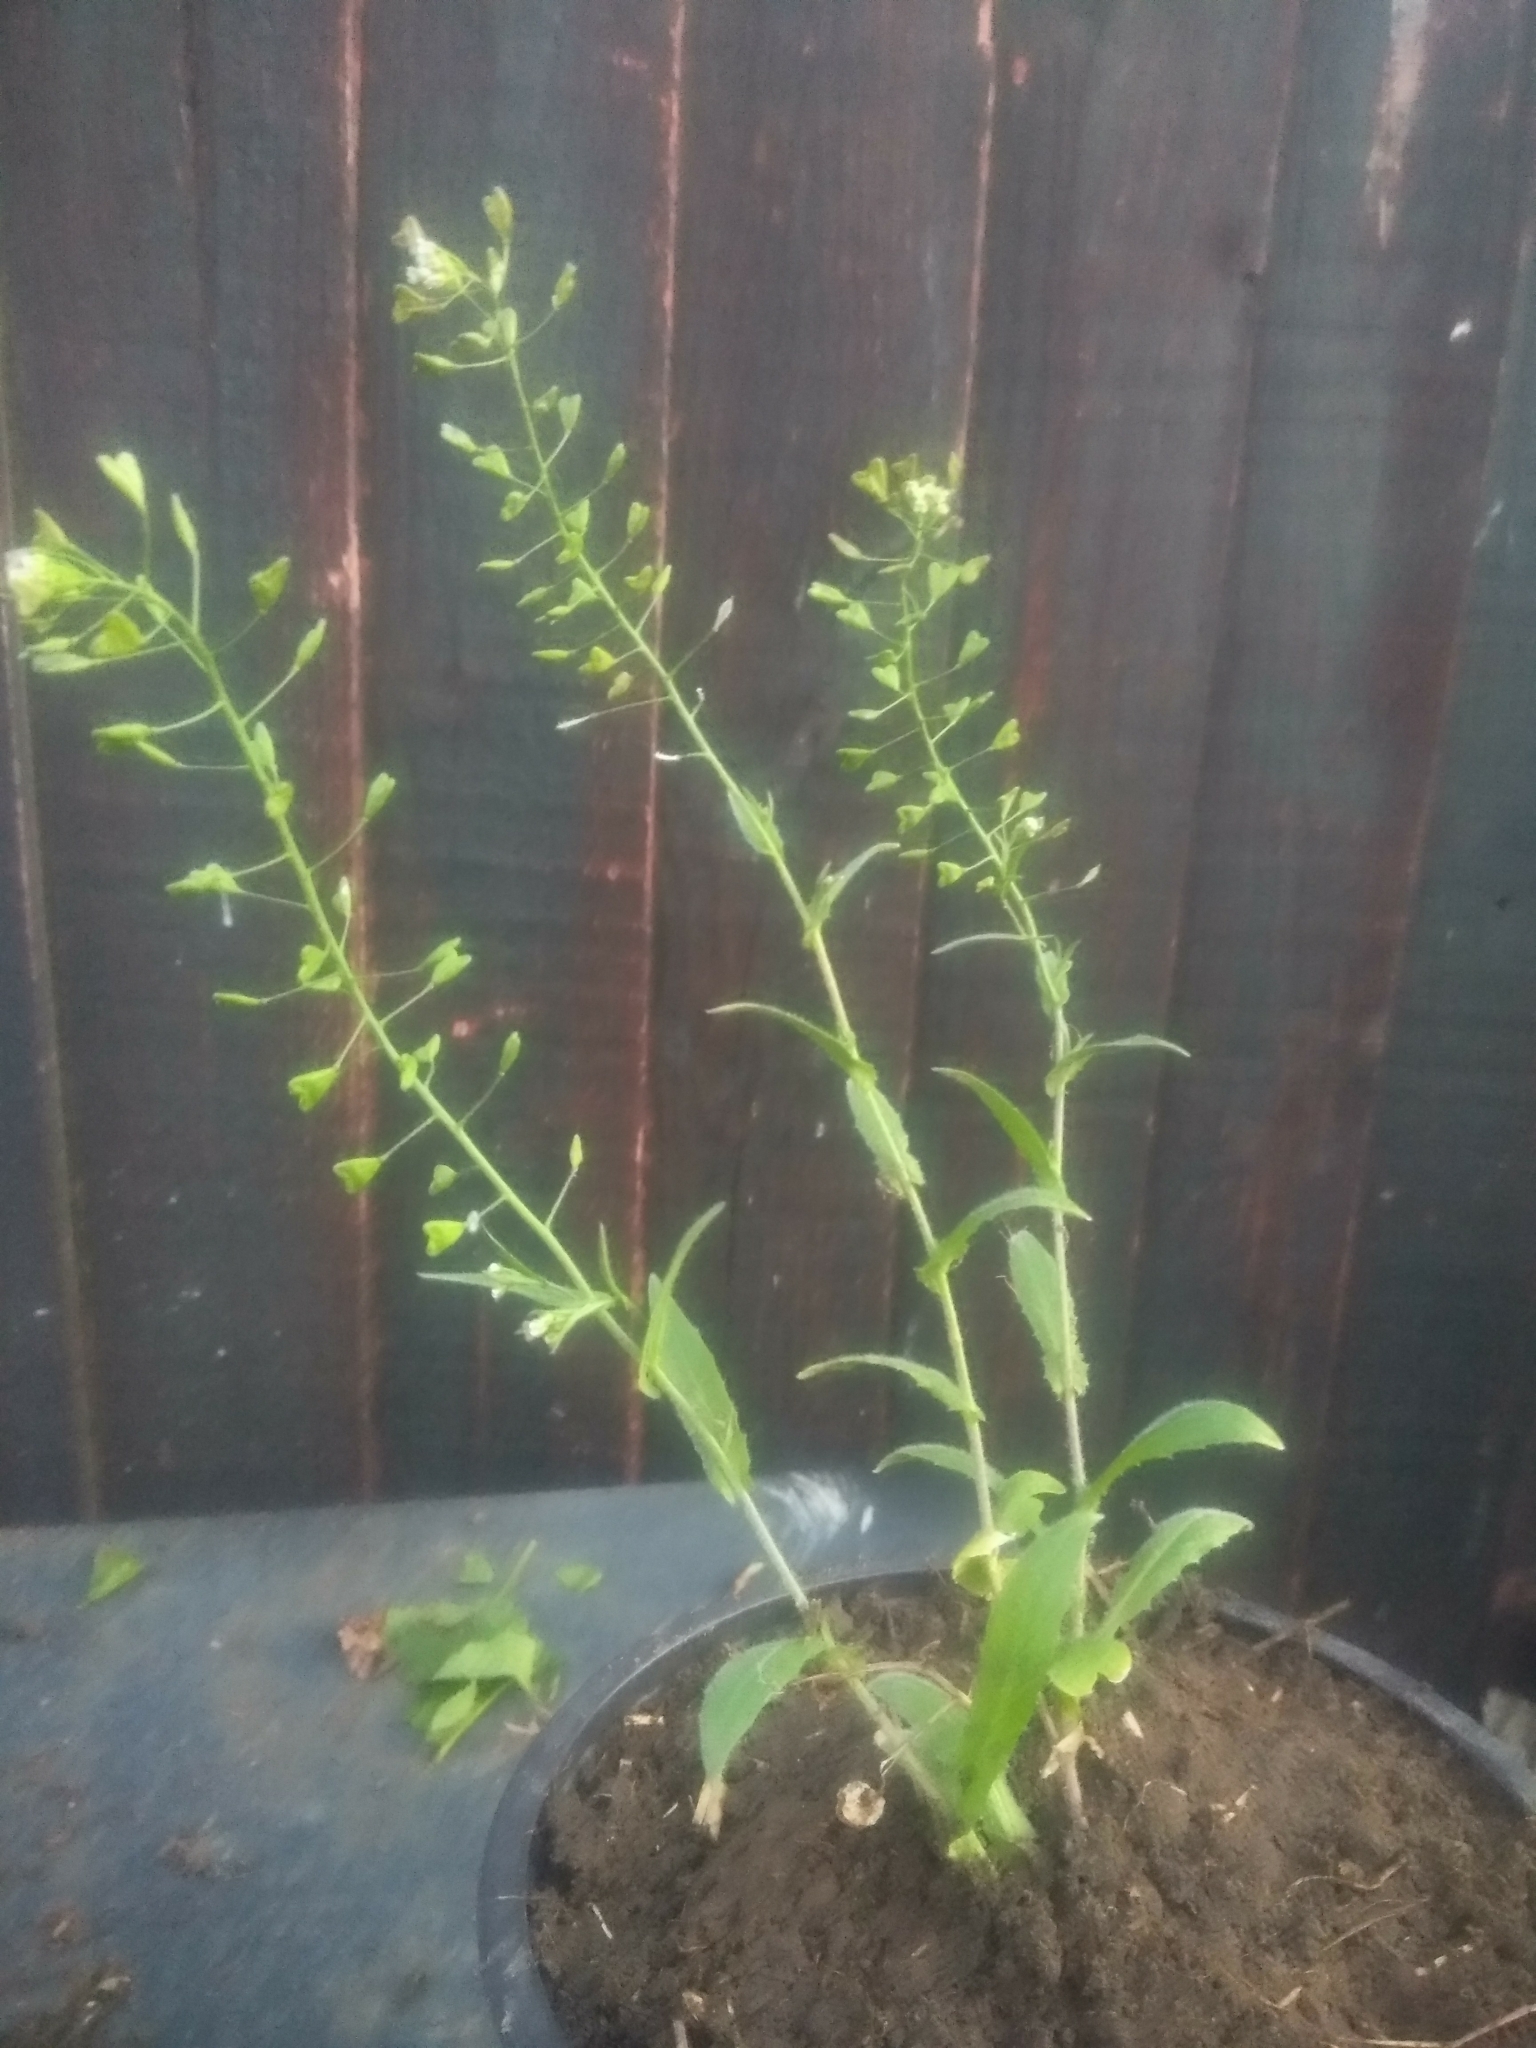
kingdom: Plantae
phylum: Tracheophyta
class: Magnoliopsida
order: Brassicales
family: Brassicaceae
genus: Capsella
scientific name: Capsella bursa-pastoris
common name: Shepherd's purse
